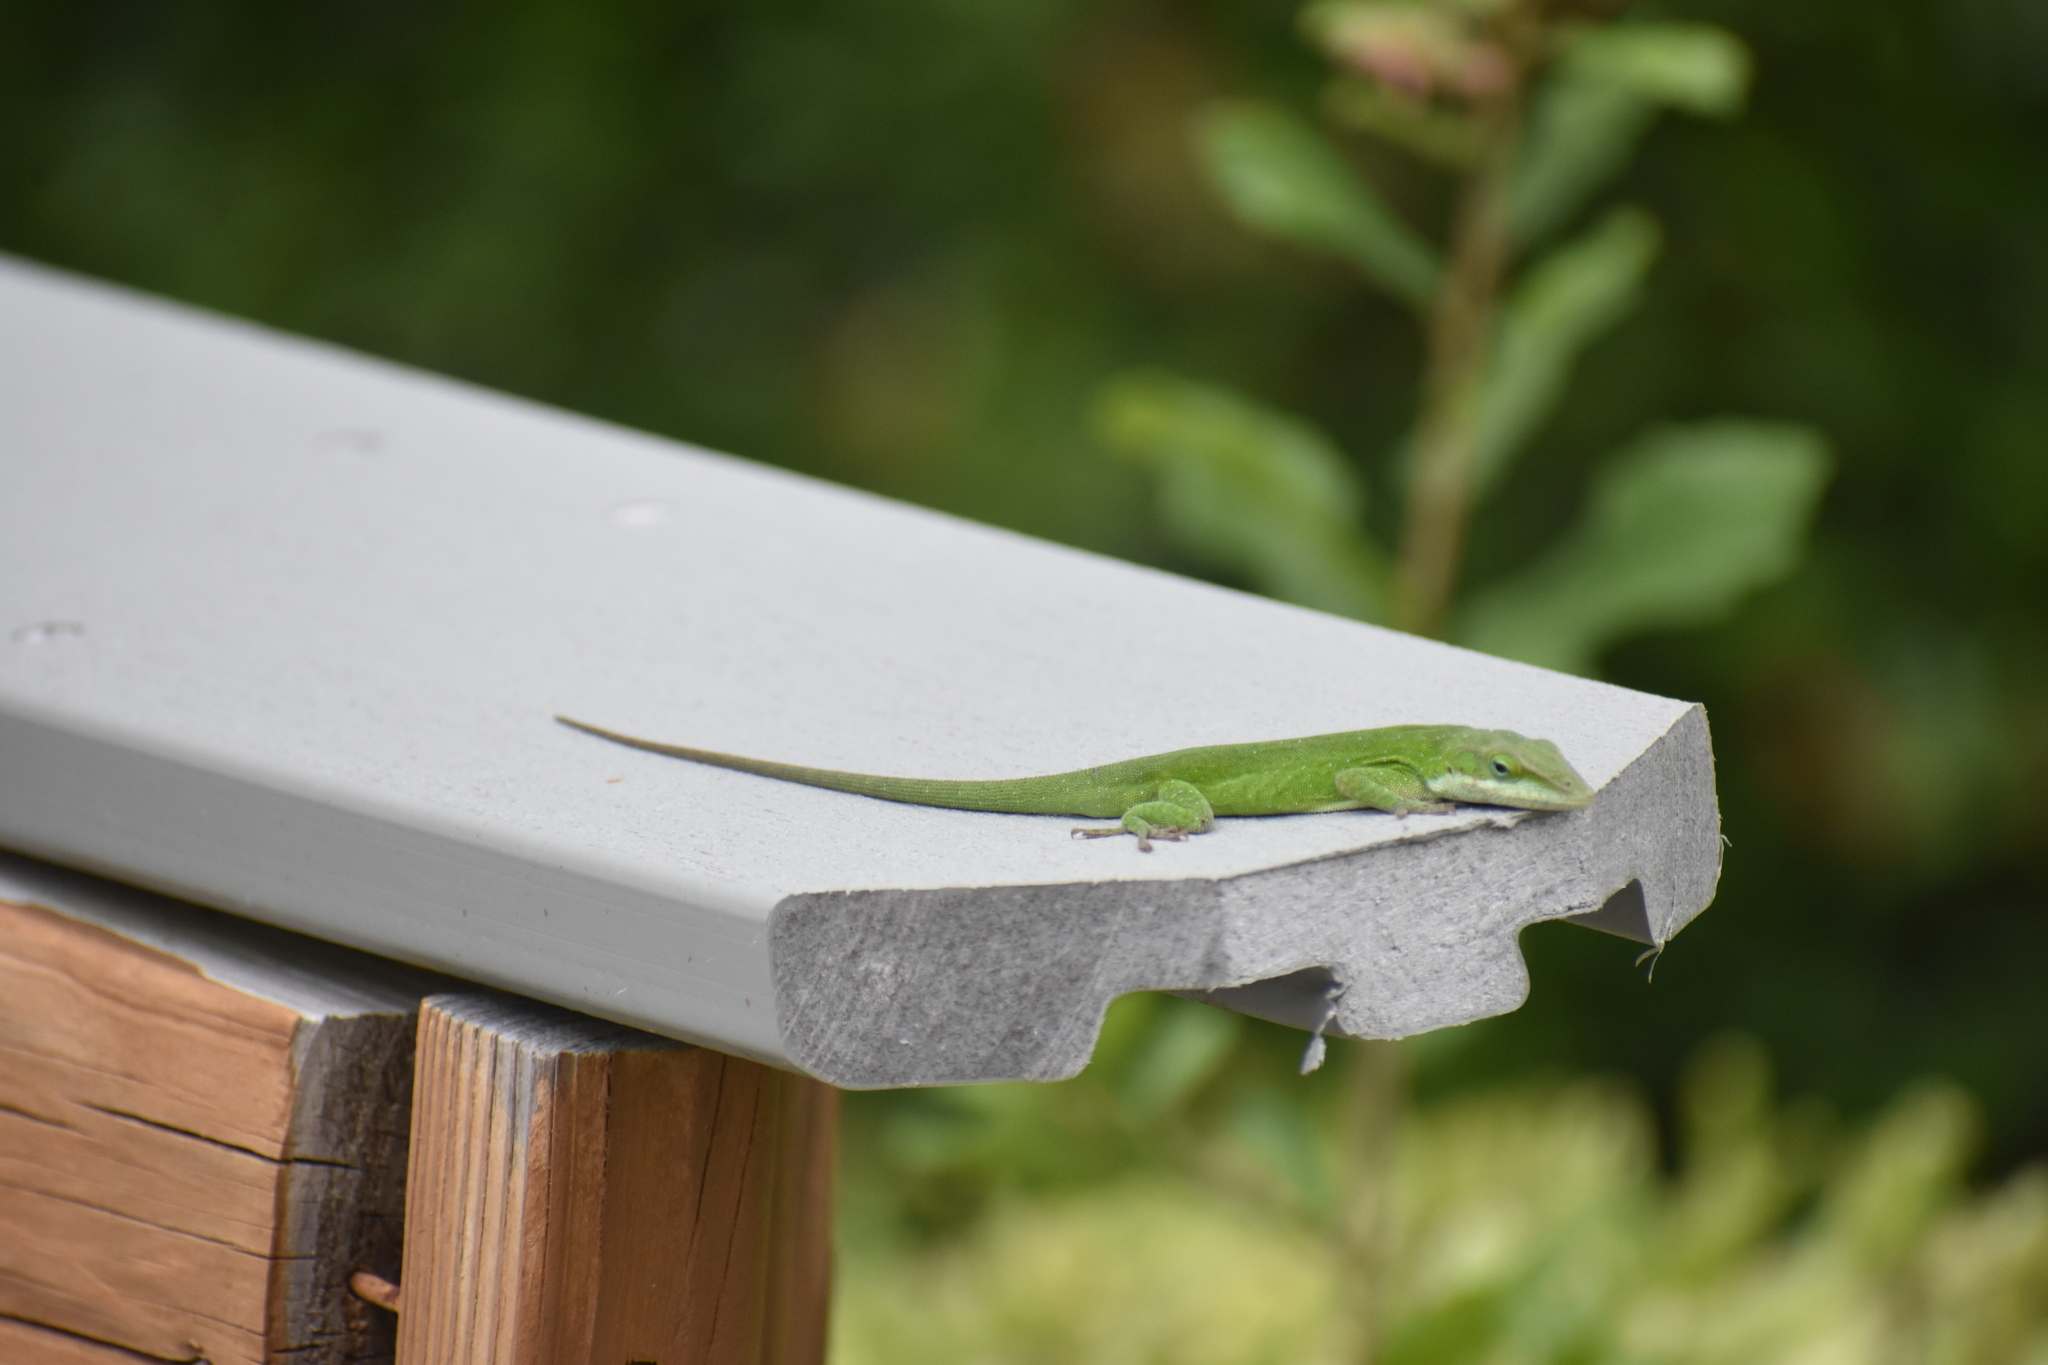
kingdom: Animalia
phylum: Chordata
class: Squamata
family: Dactyloidae
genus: Anolis
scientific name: Anolis carolinensis
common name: Green anole
